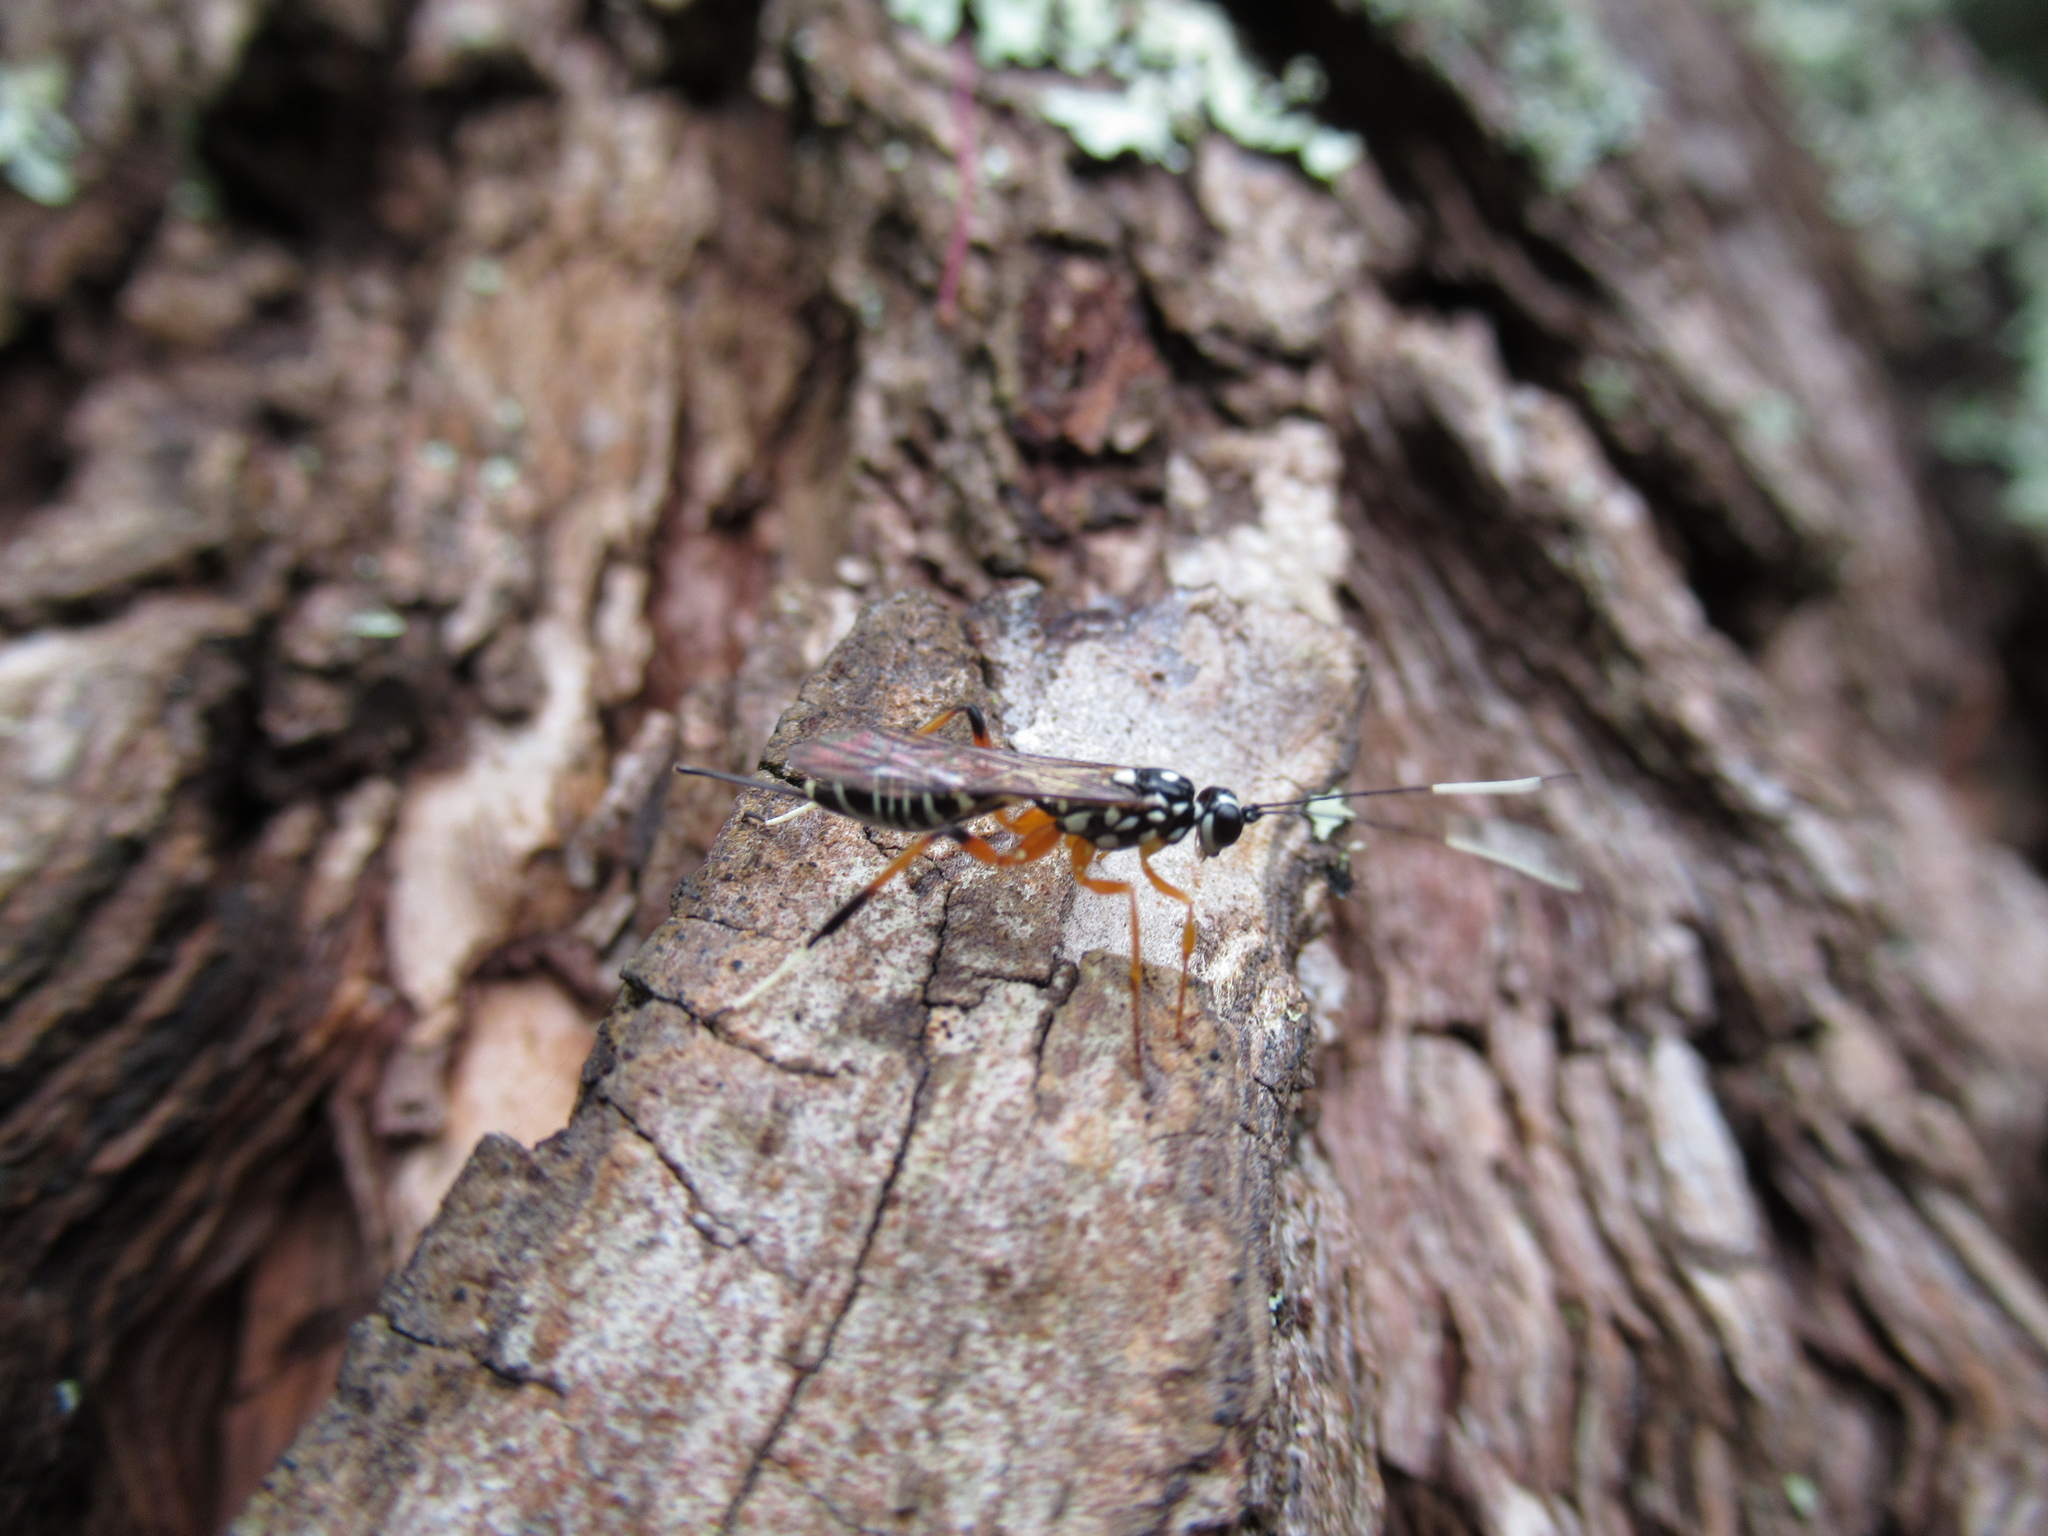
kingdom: Animalia
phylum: Arthropoda
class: Insecta
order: Hymenoptera
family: Ichneumonidae
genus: Xanthocryptus
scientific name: Xanthocryptus novozealandicus
